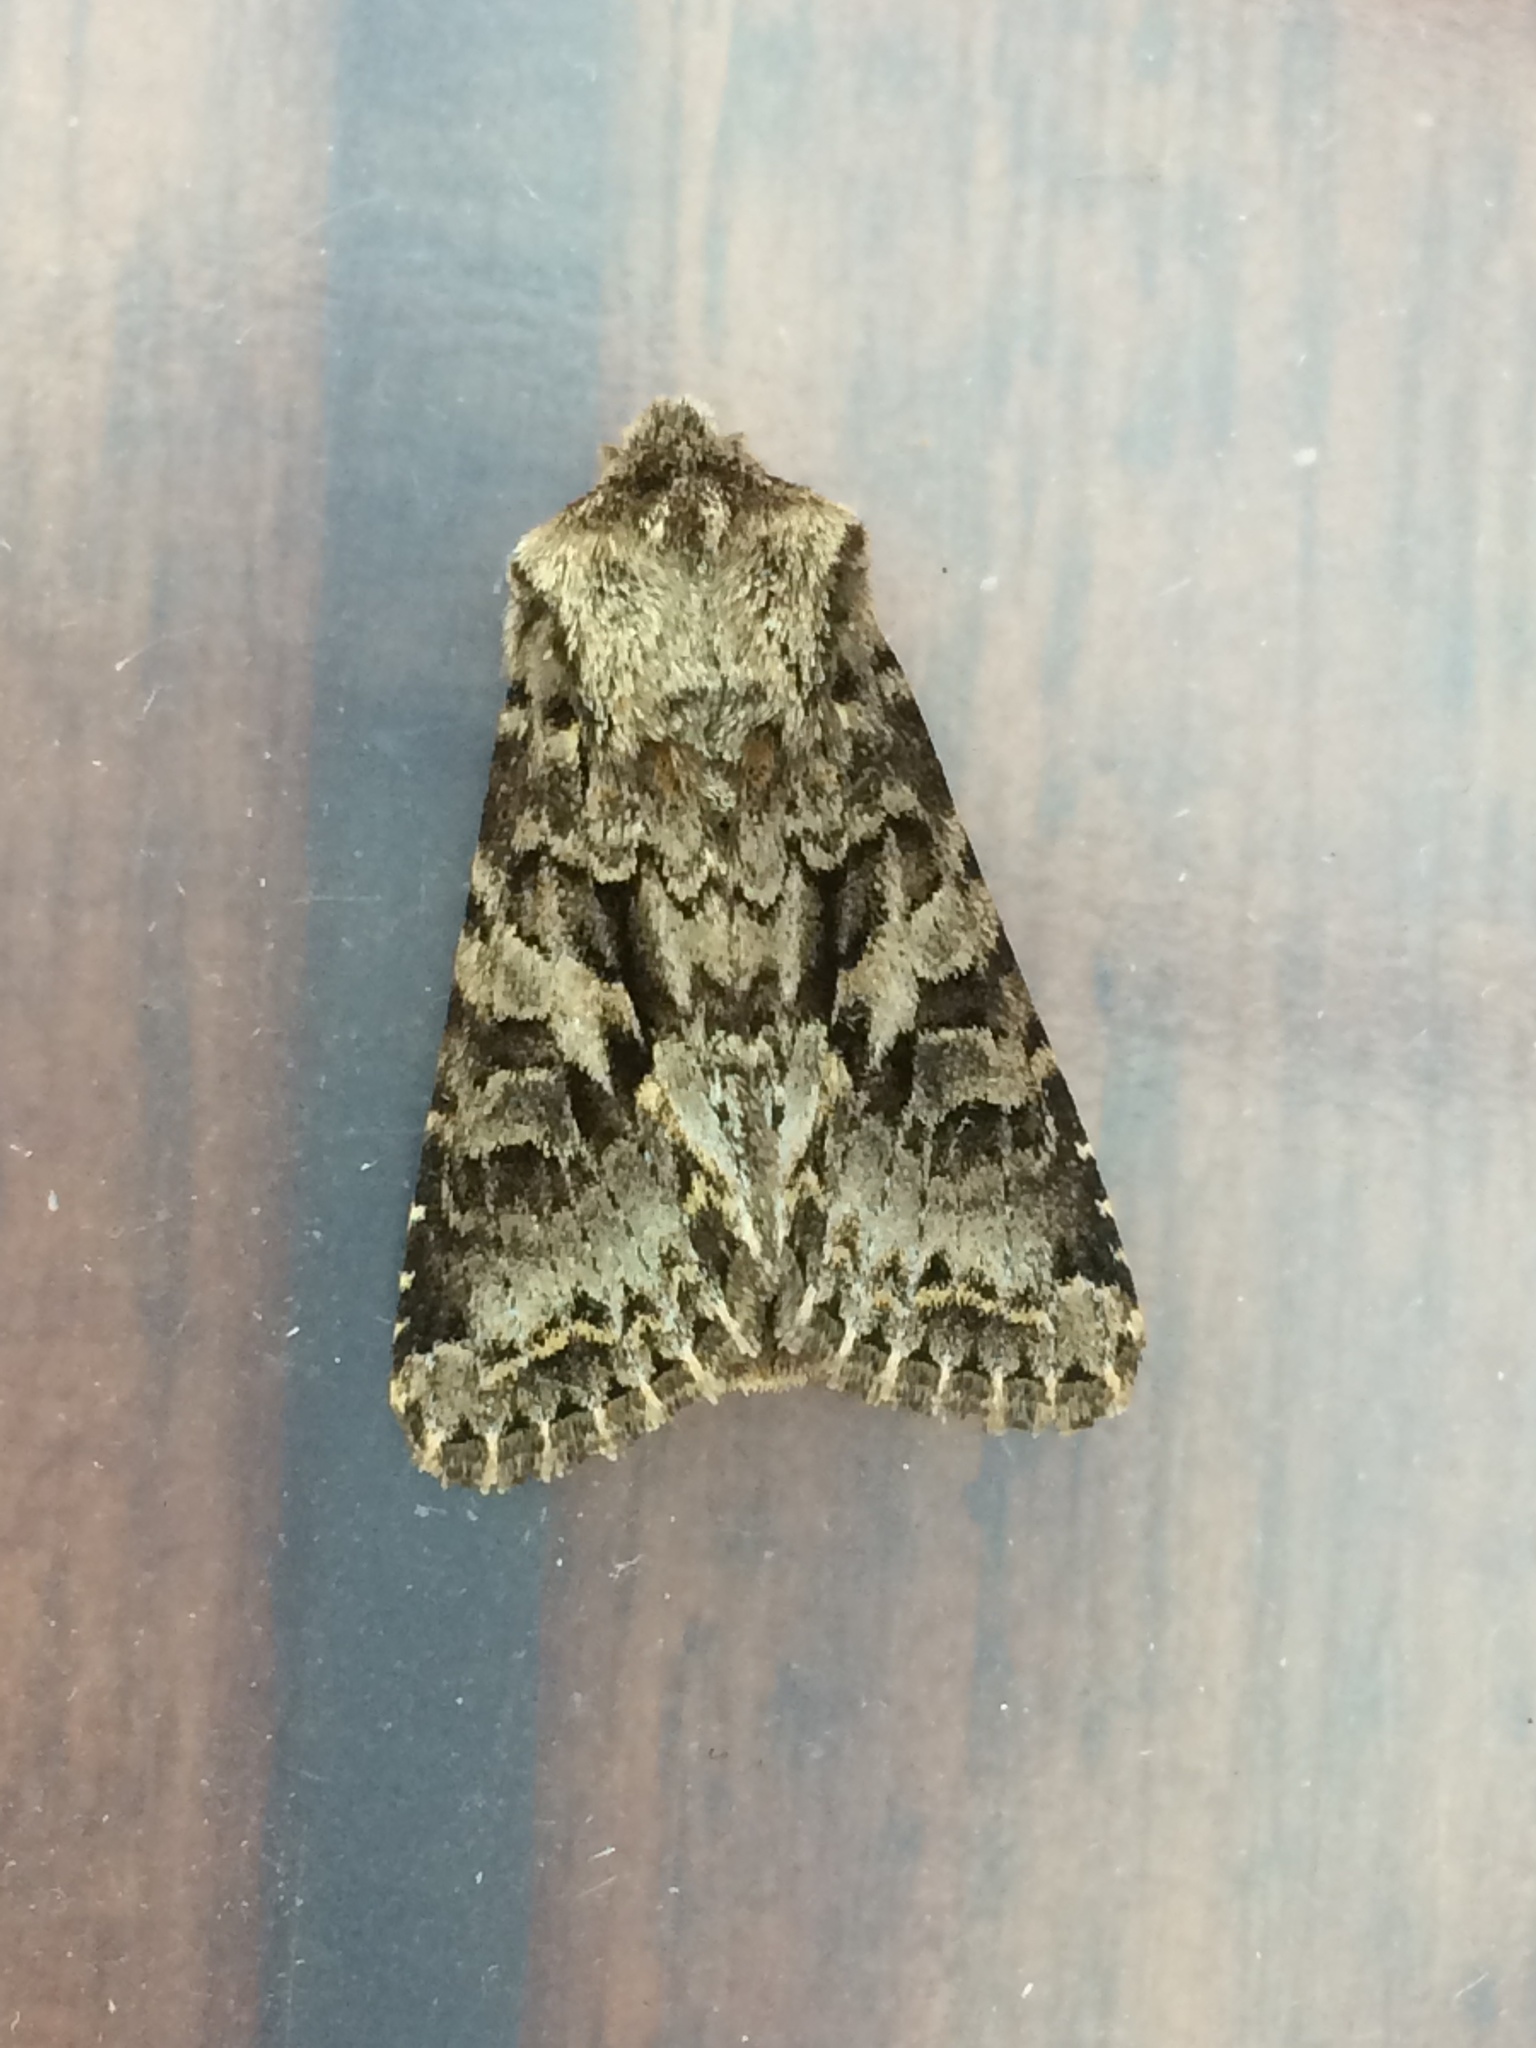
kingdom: Animalia
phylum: Arthropoda
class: Insecta
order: Lepidoptera
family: Noctuidae
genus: Hada
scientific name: Hada plebeja
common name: Shears
